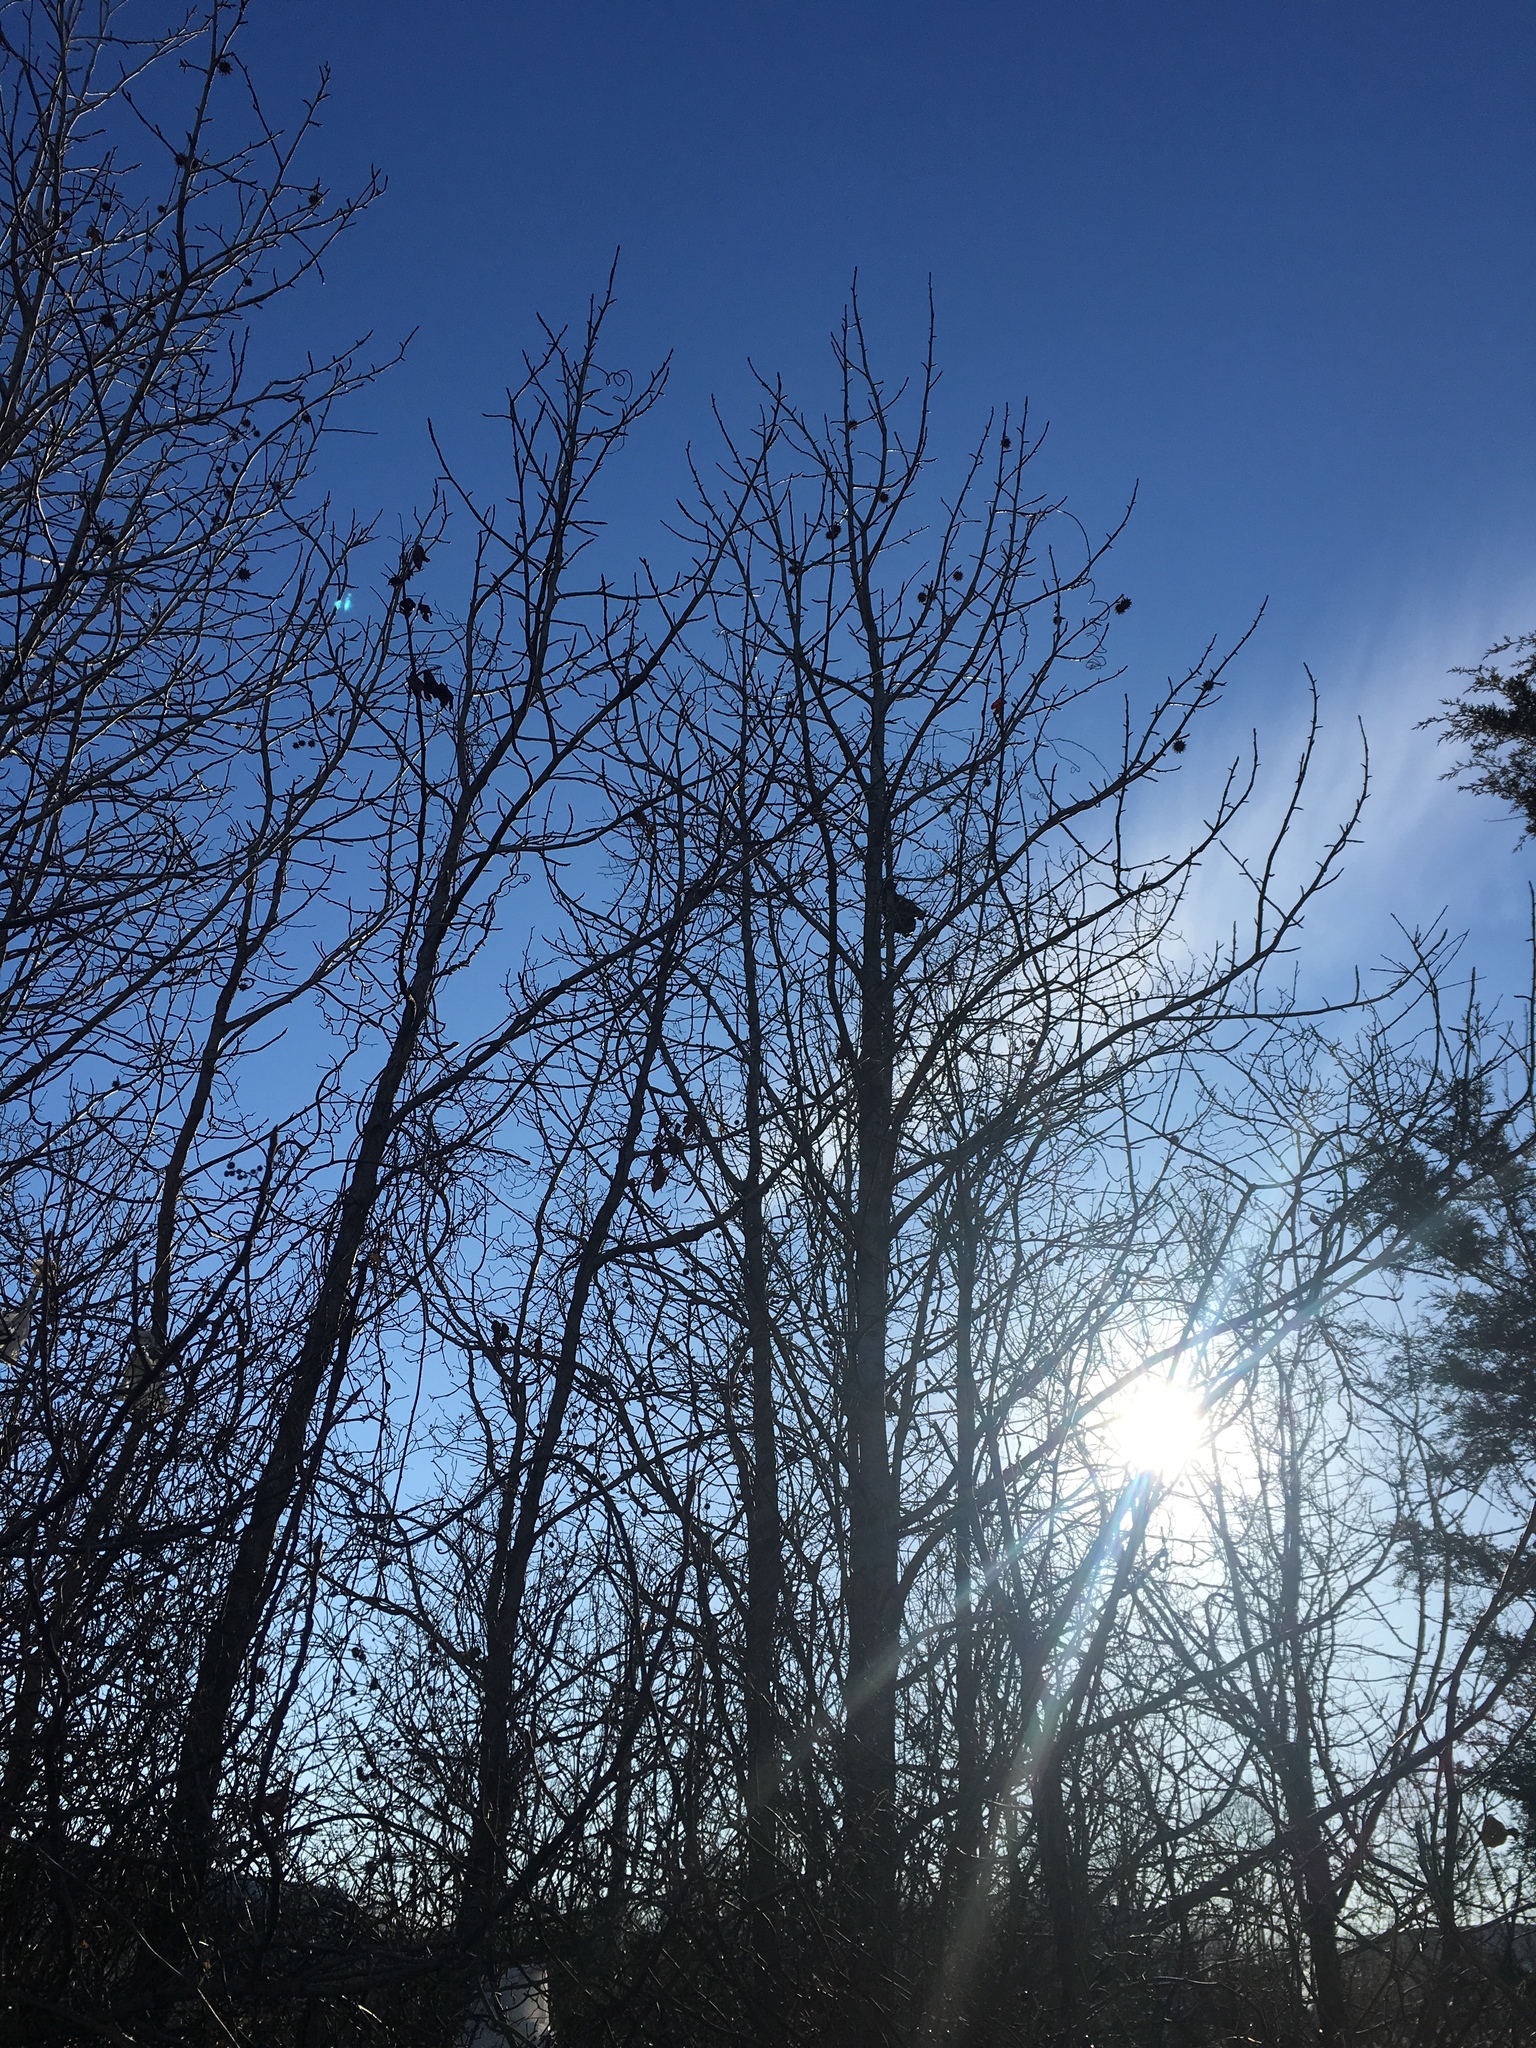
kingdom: Plantae
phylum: Tracheophyta
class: Magnoliopsida
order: Saxifragales
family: Altingiaceae
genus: Liquidambar
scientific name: Liquidambar styraciflua
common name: Sweet gum
